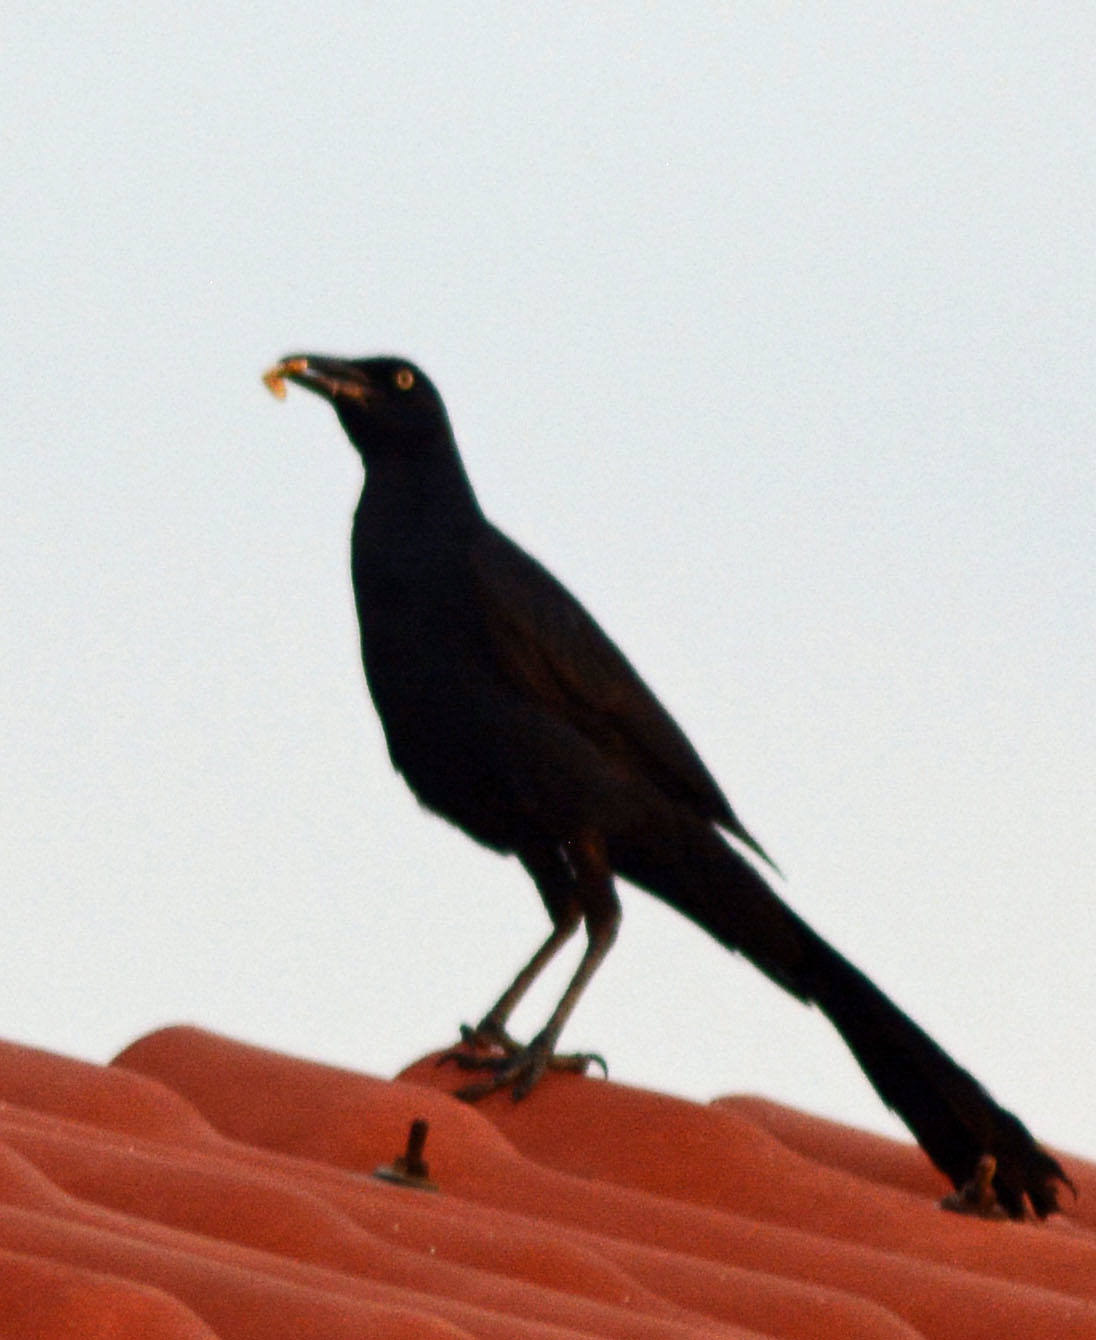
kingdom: Animalia
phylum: Chordata
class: Aves
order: Passeriformes
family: Icteridae
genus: Quiscalus
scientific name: Quiscalus mexicanus
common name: Great-tailed grackle
